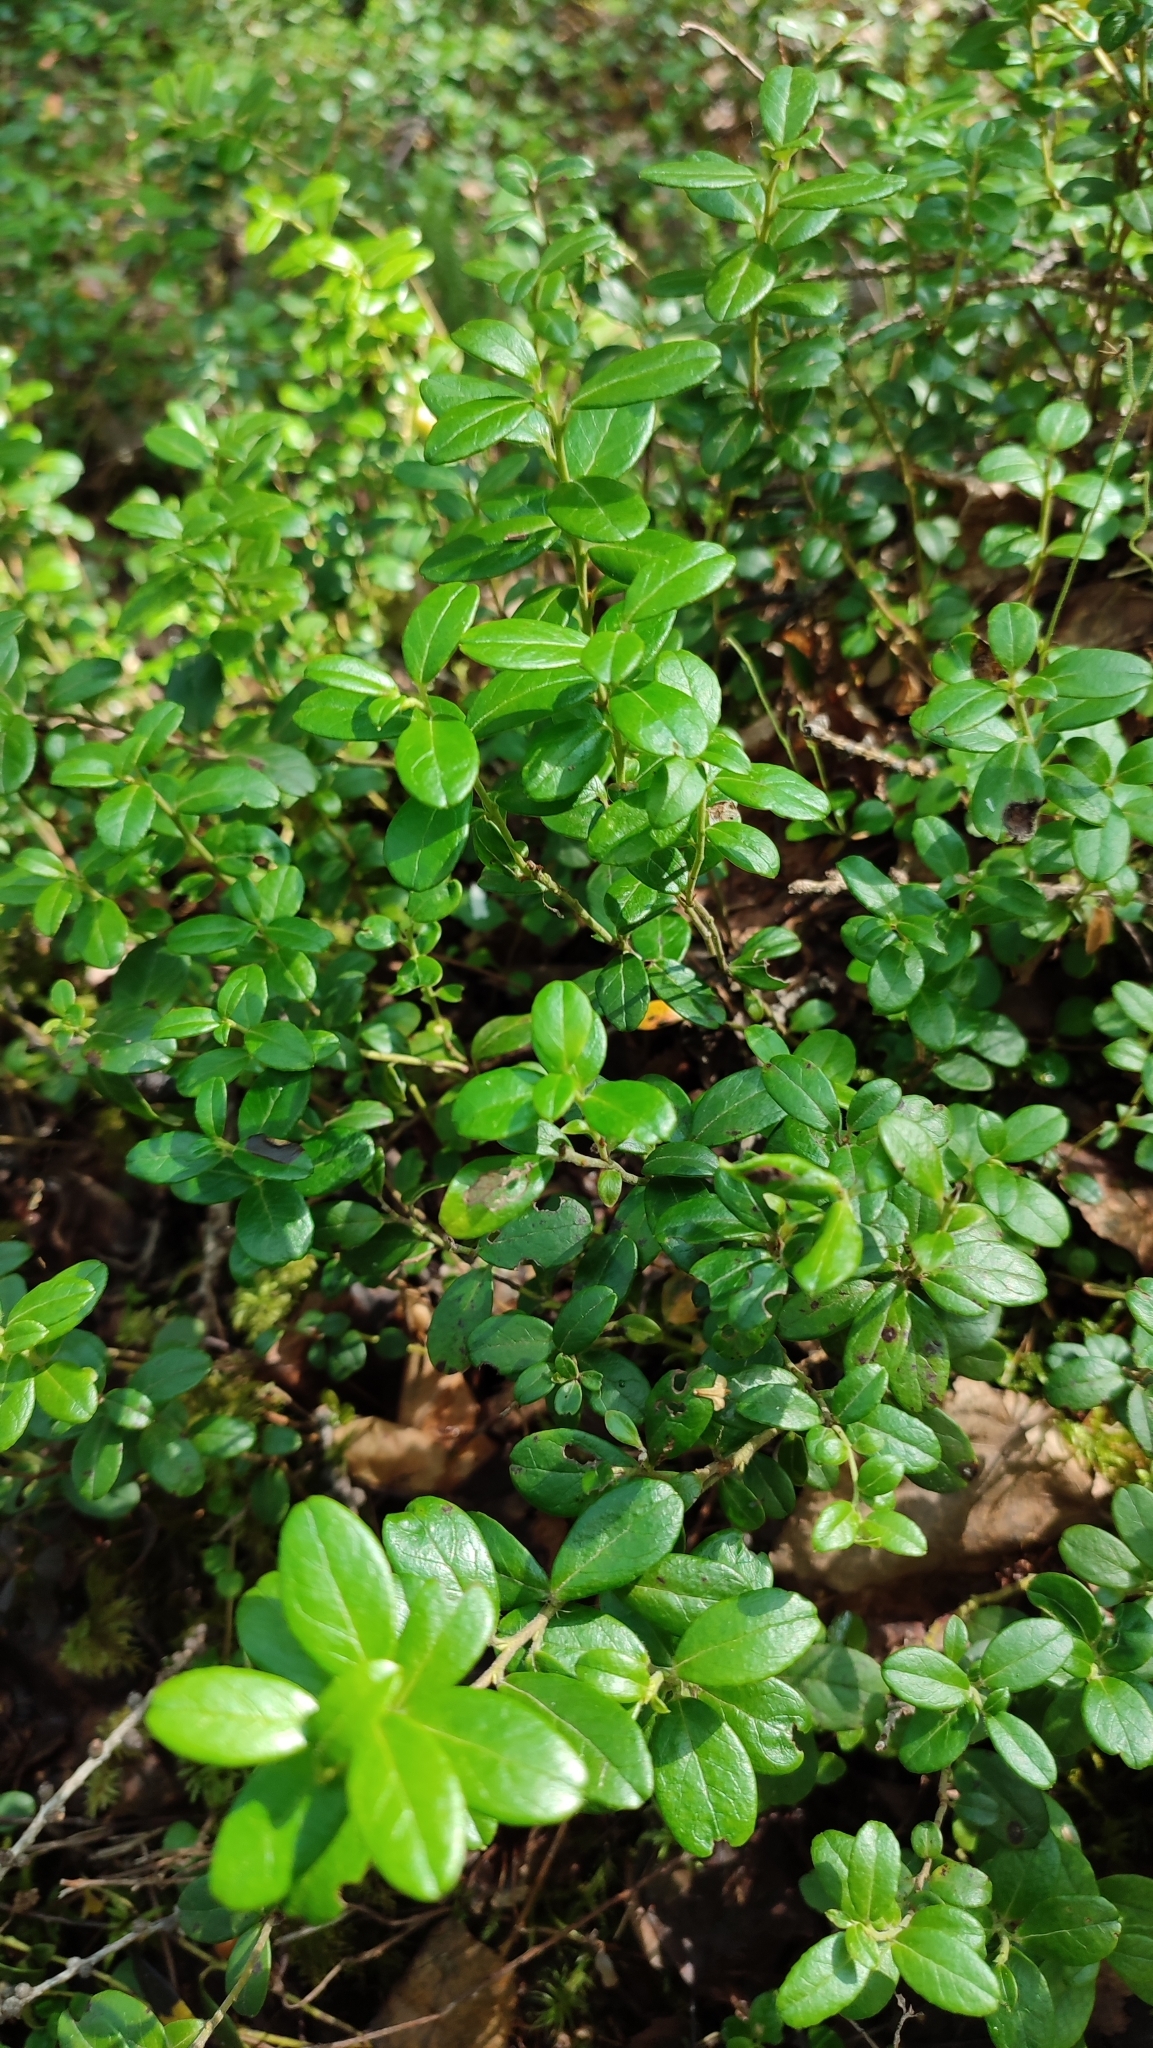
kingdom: Plantae
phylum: Tracheophyta
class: Magnoliopsida
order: Ericales
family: Ericaceae
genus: Vaccinium
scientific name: Vaccinium vitis-idaea
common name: Cowberry
